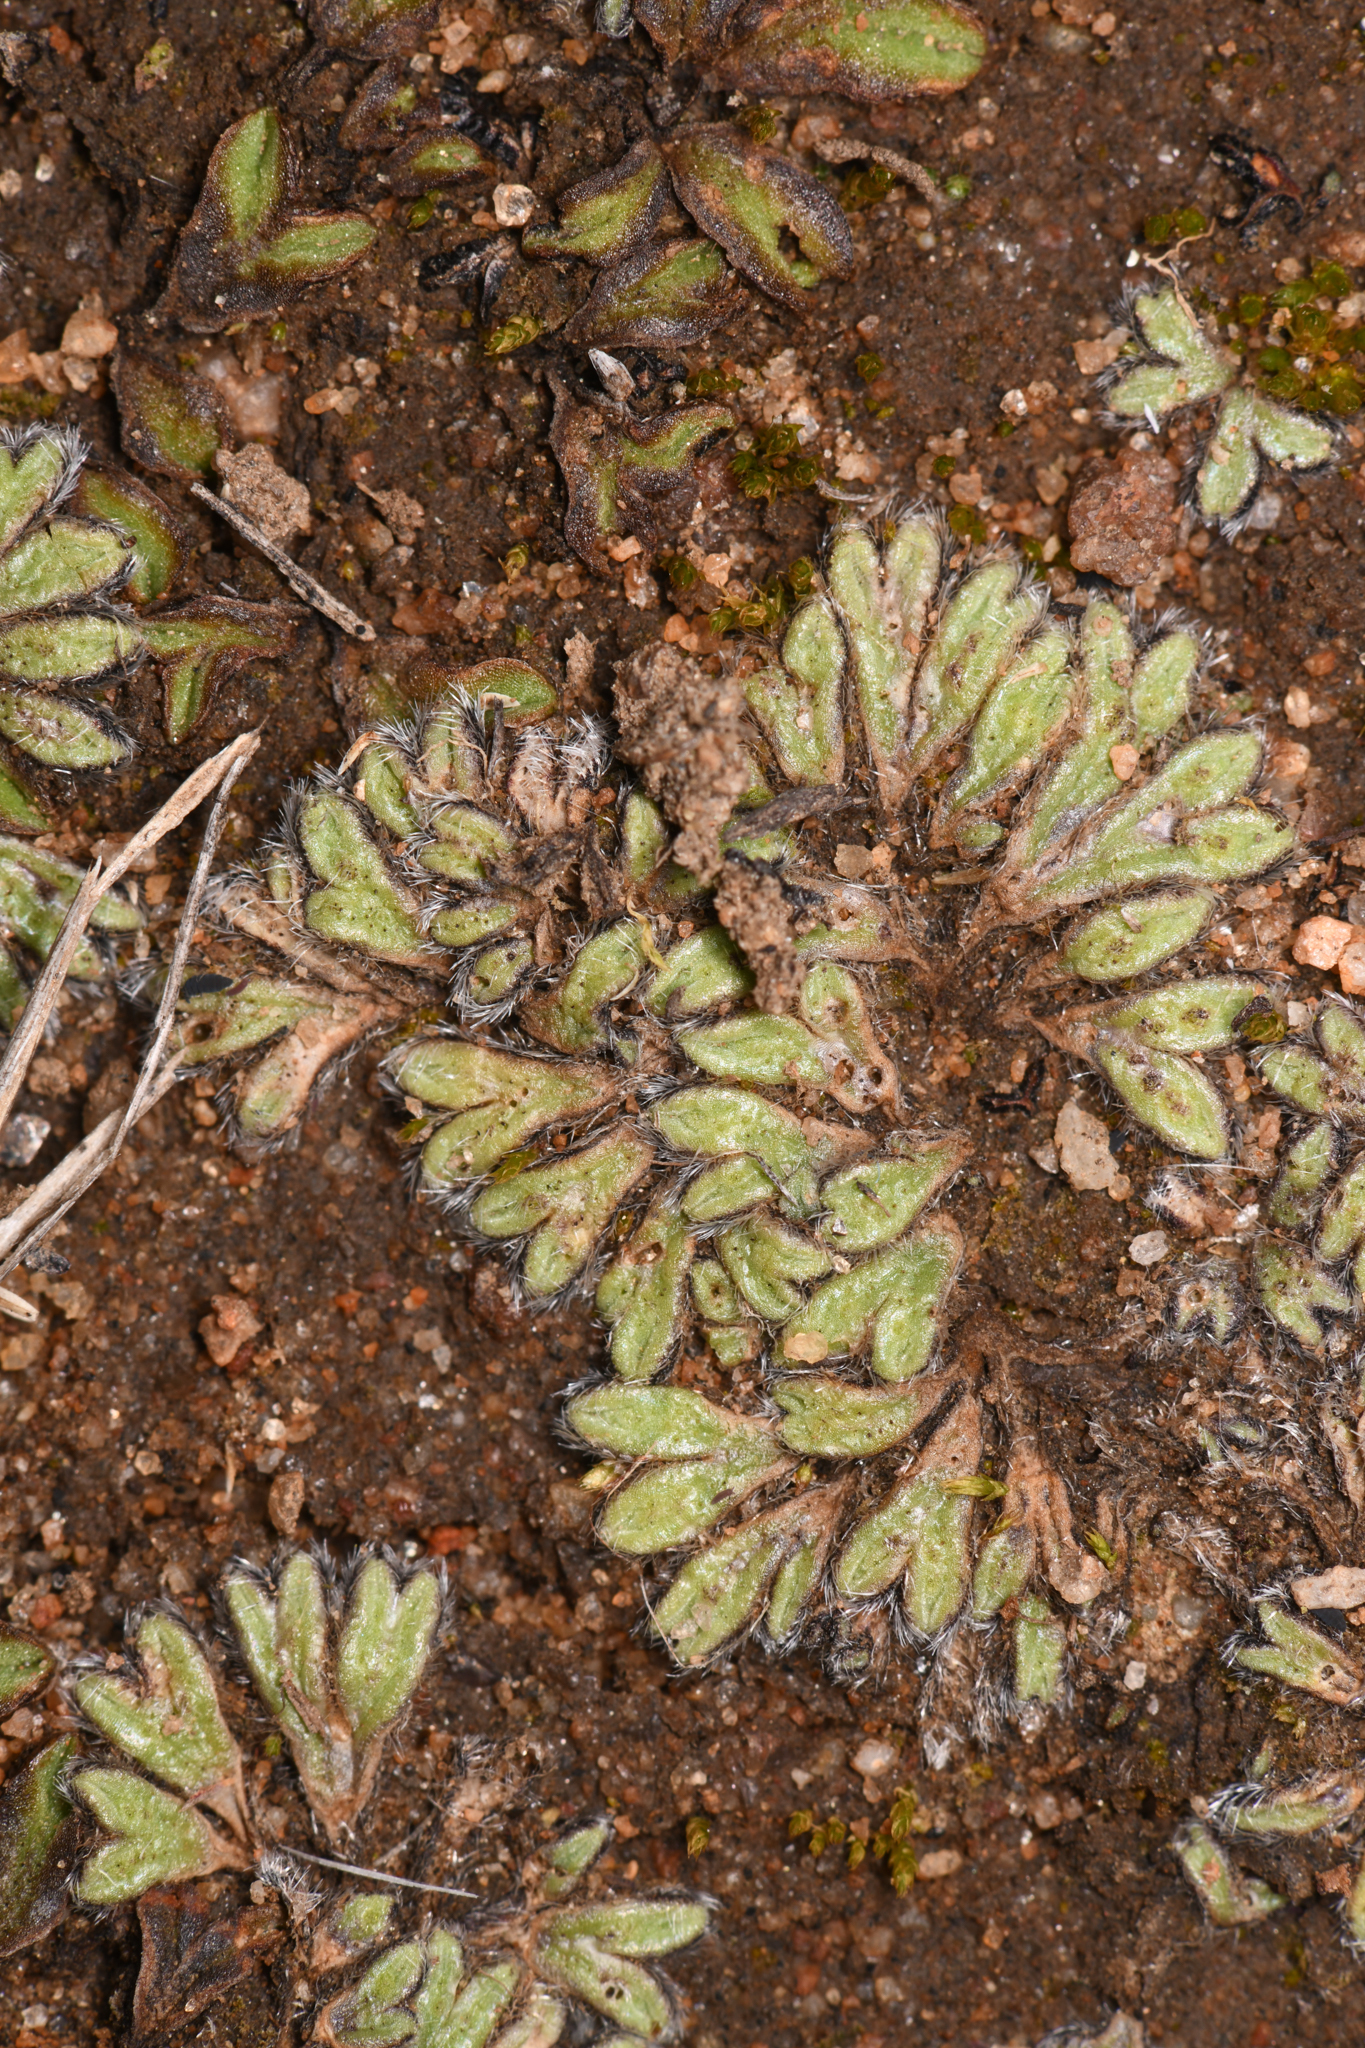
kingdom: Plantae
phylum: Marchantiophyta
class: Marchantiopsida
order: Marchantiales
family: Ricciaceae
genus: Riccia
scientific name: Riccia trichocarpa
